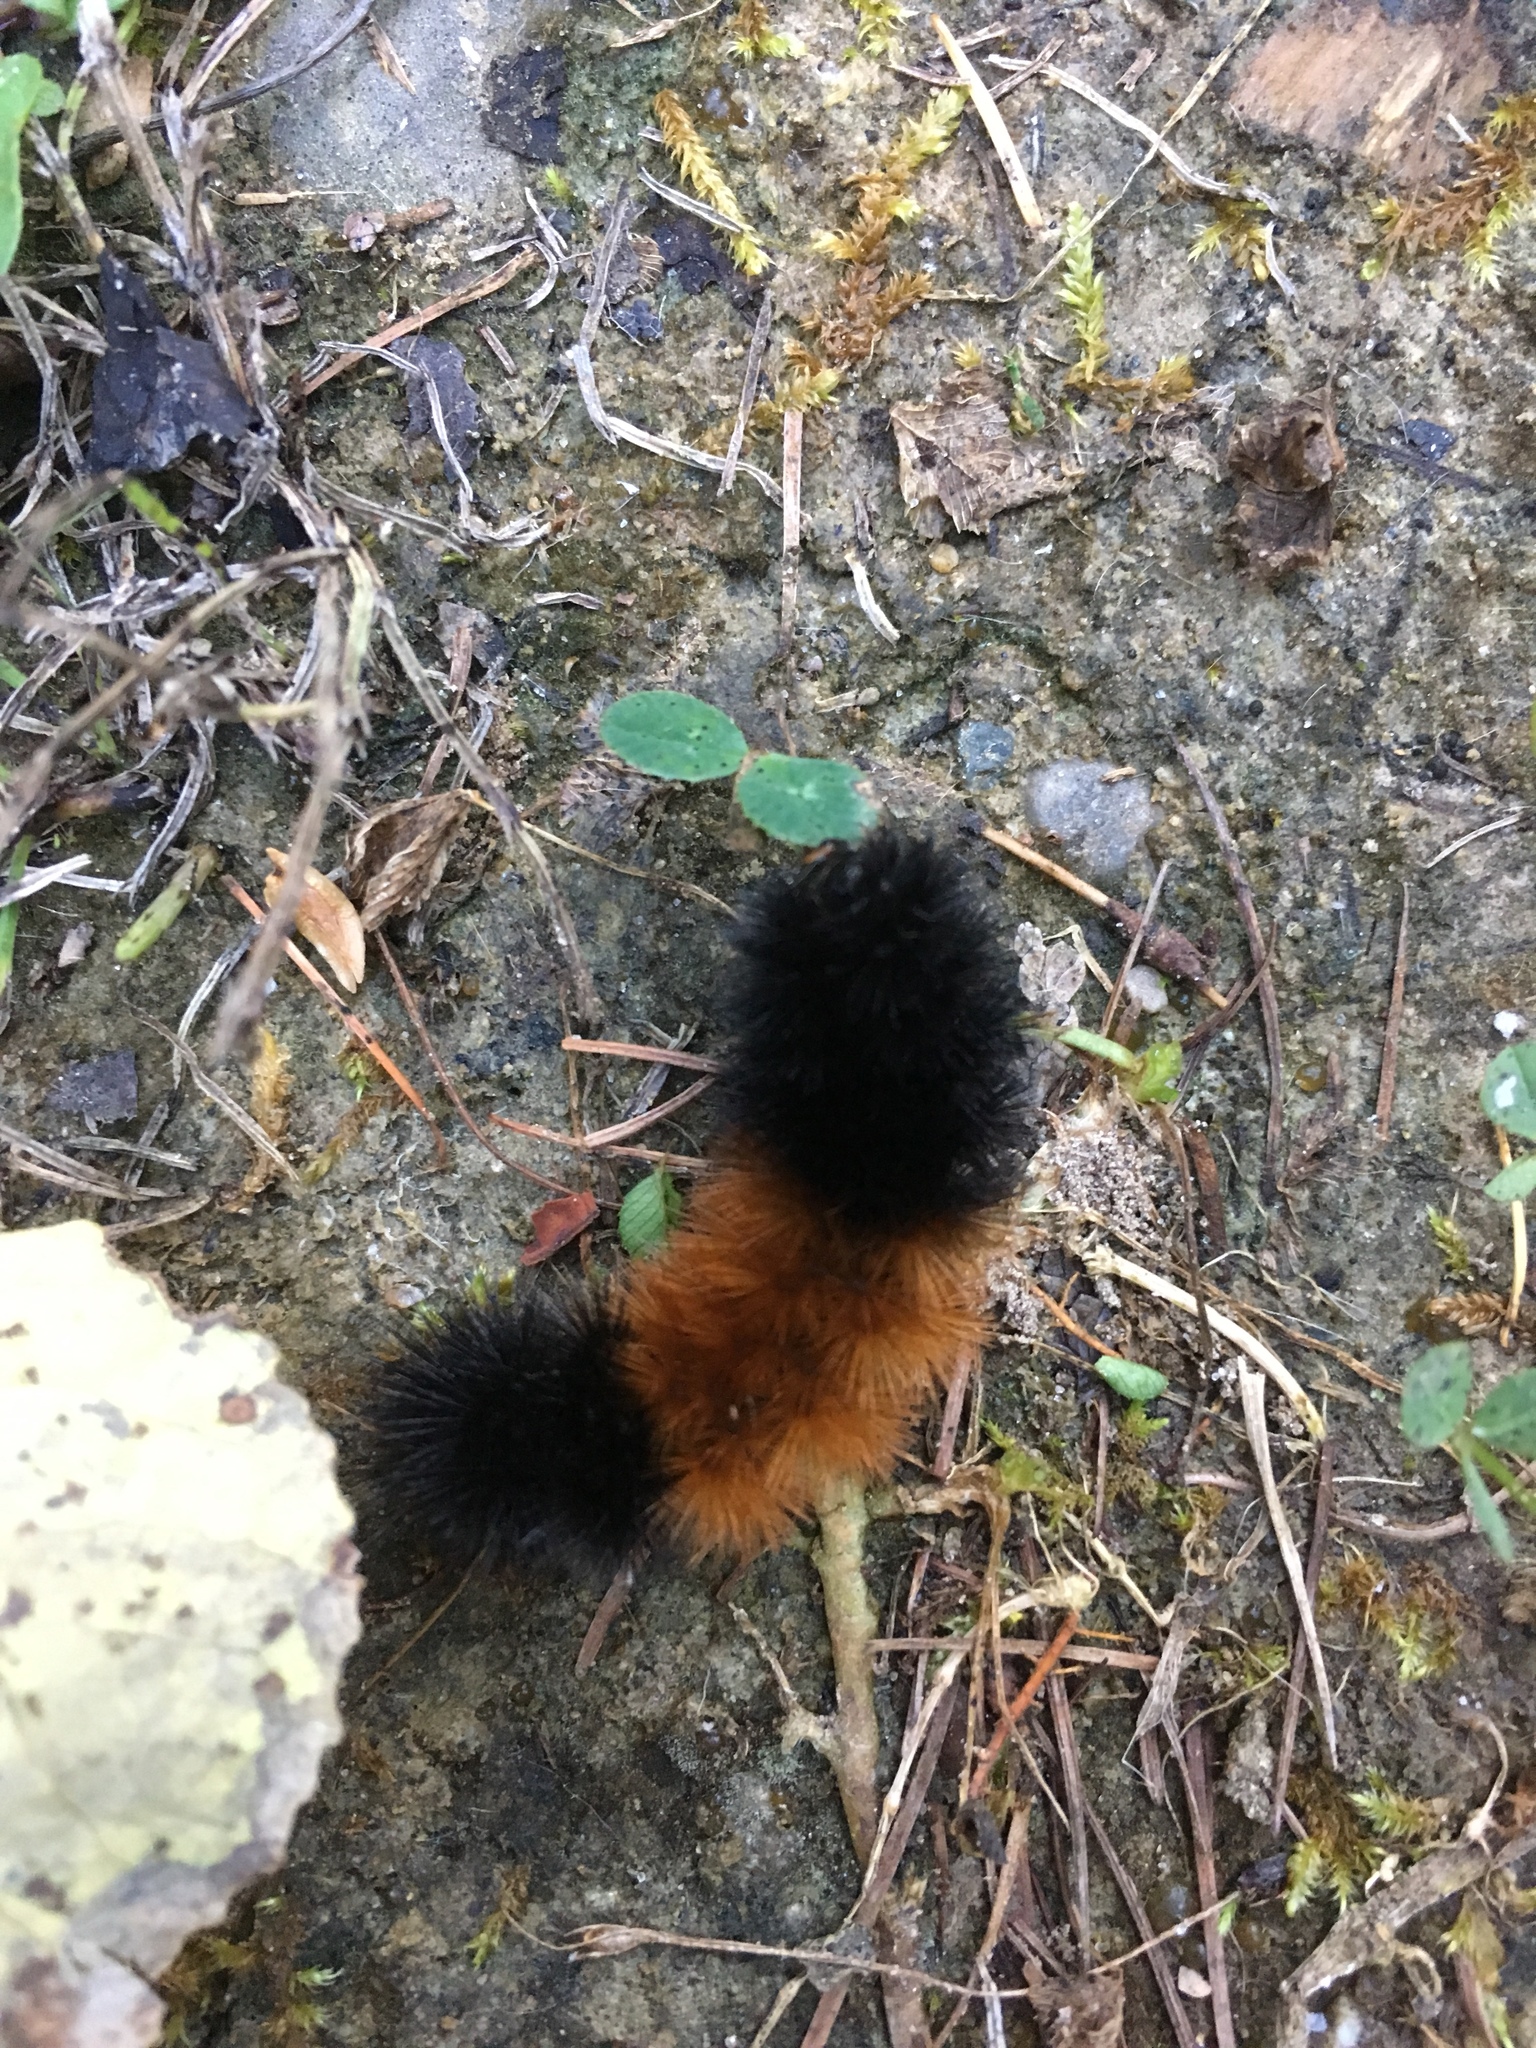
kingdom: Animalia
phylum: Arthropoda
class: Insecta
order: Lepidoptera
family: Erebidae
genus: Pyrrharctia
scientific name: Pyrrharctia isabella
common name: Isabella tiger moth
